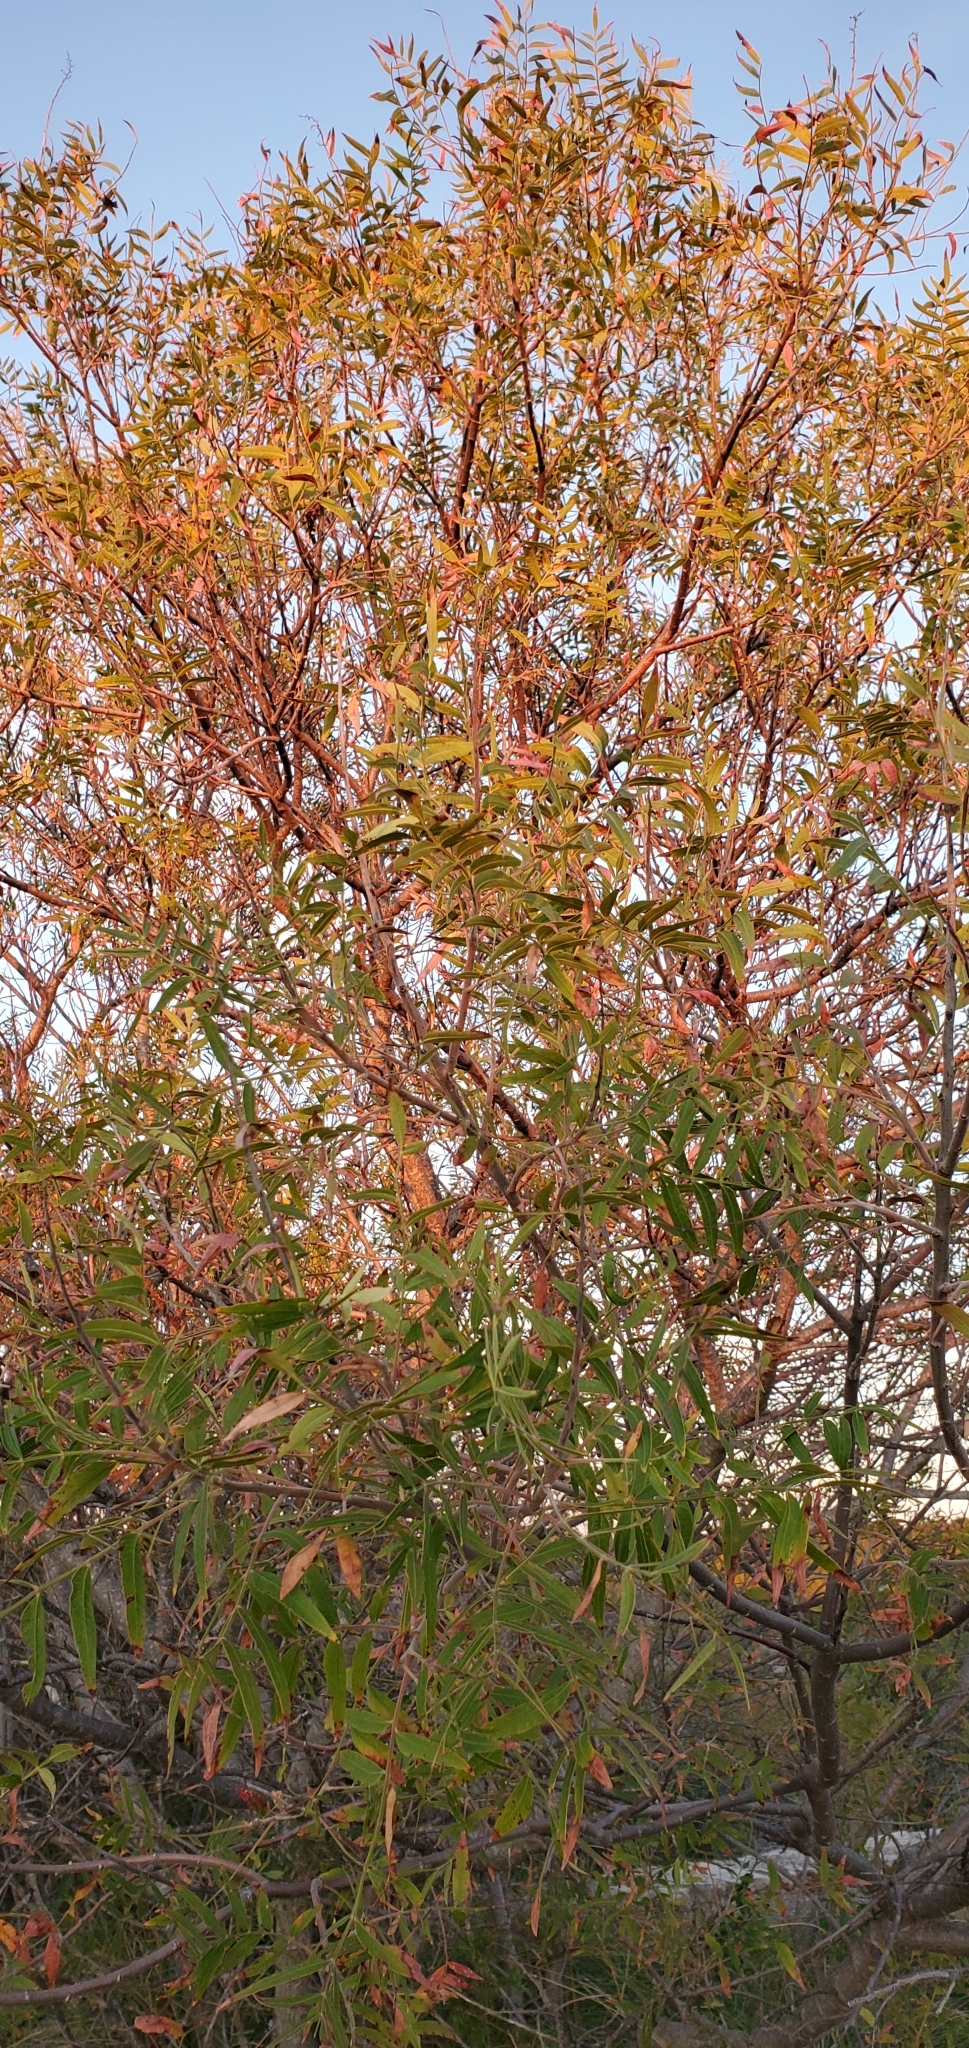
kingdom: Plantae
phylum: Tracheophyta
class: Magnoliopsida
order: Sapindales
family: Anacardiaceae
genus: Rhus
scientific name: Rhus lanceolata
